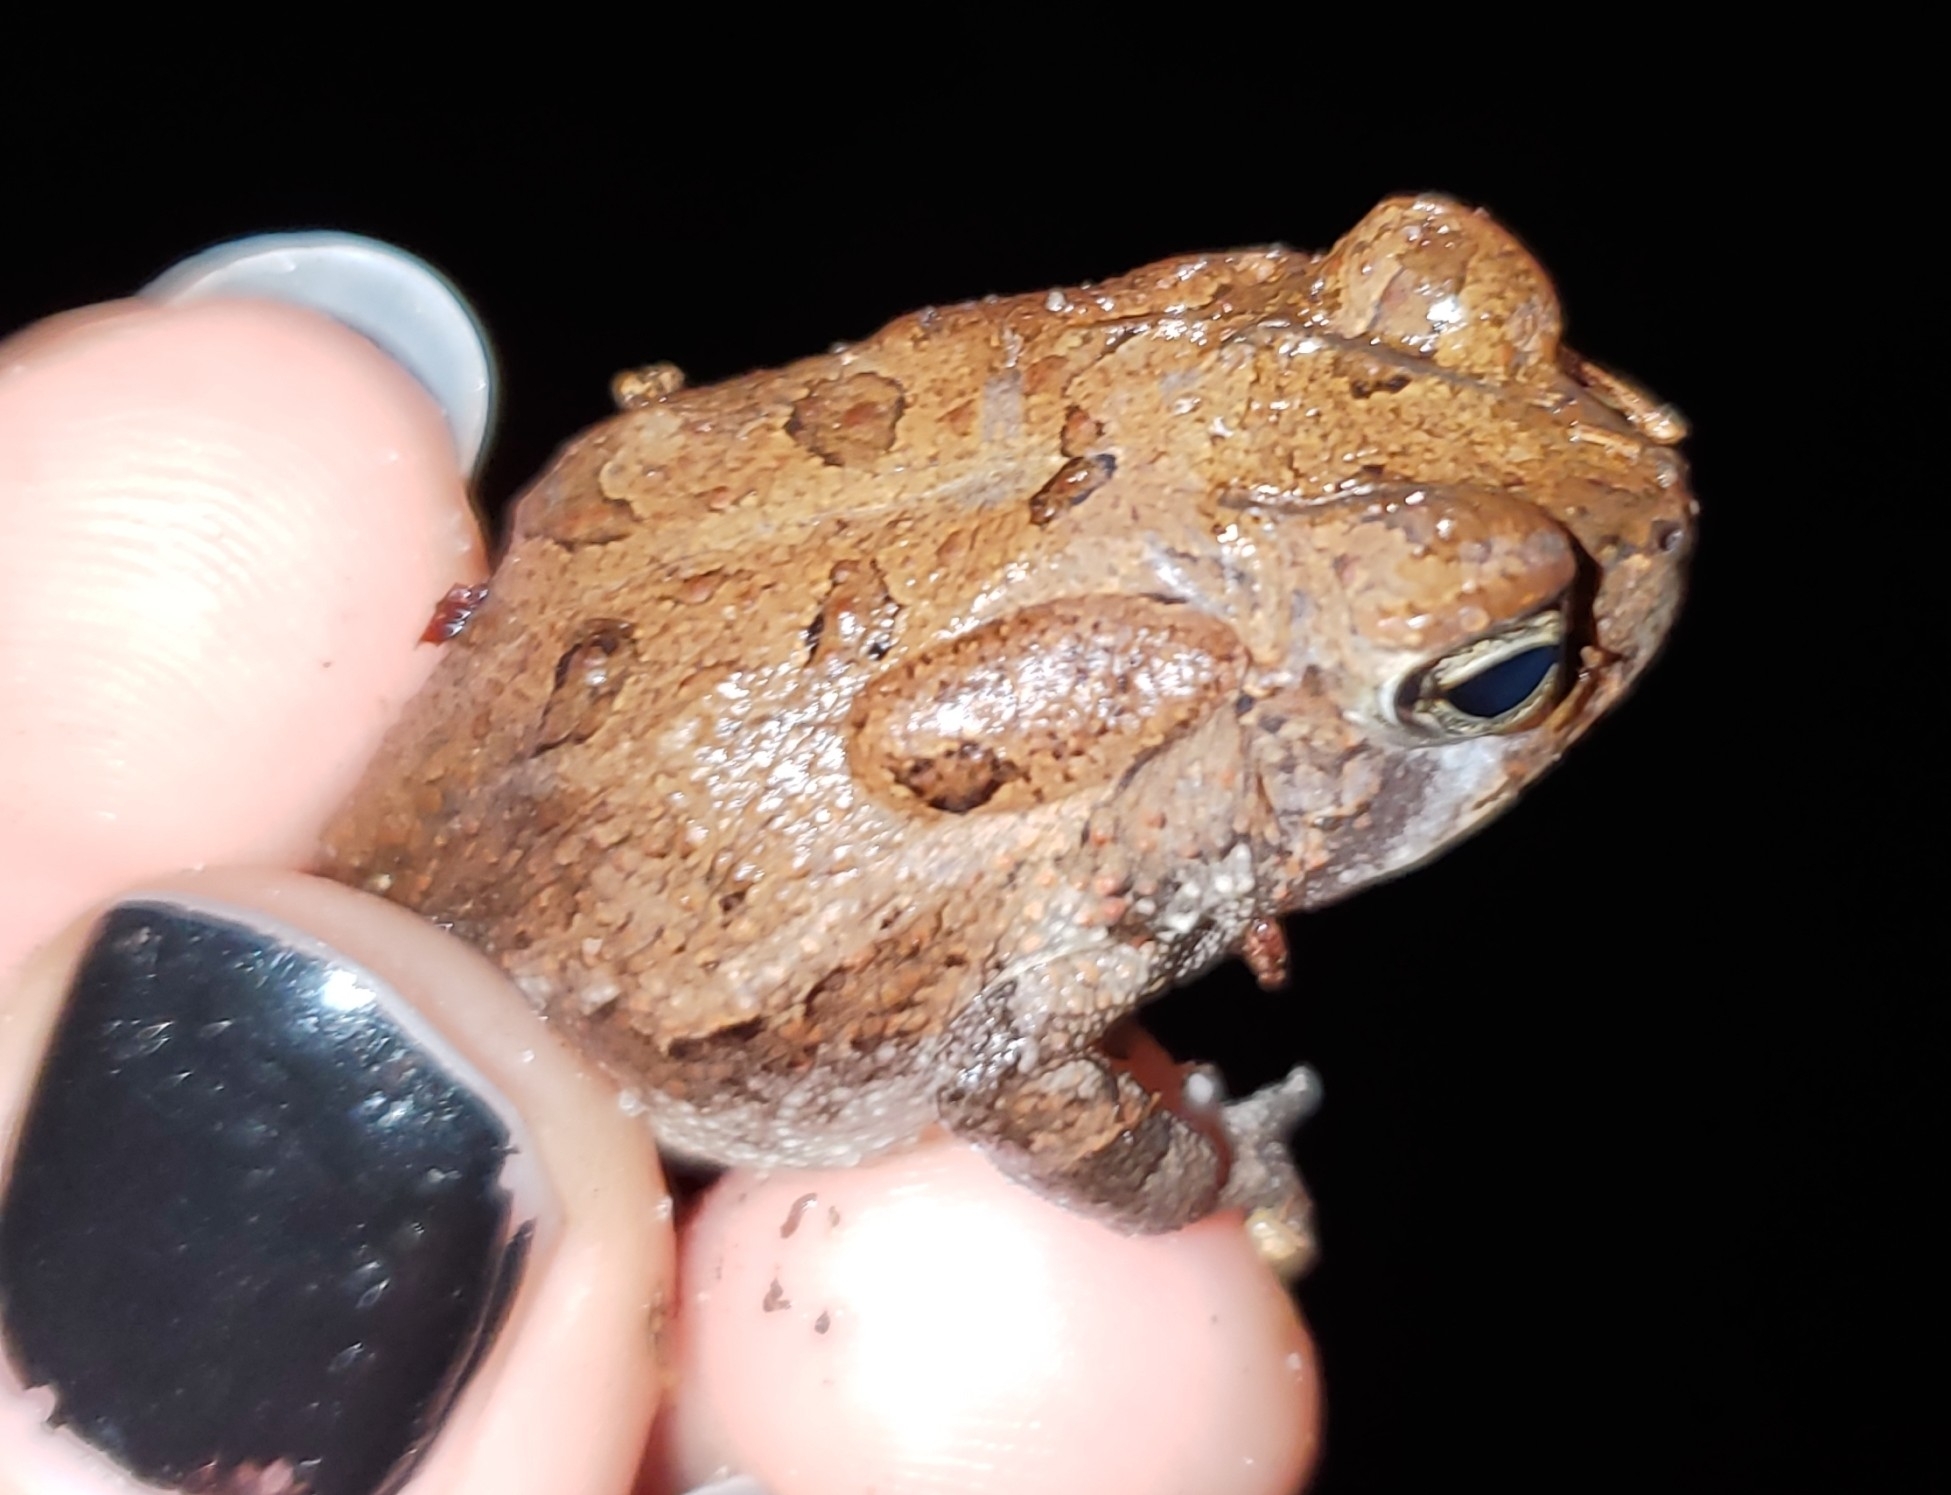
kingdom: Animalia
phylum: Chordata
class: Amphibia
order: Anura
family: Bufonidae
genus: Anaxyrus
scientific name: Anaxyrus terrestris
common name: Southern toad
